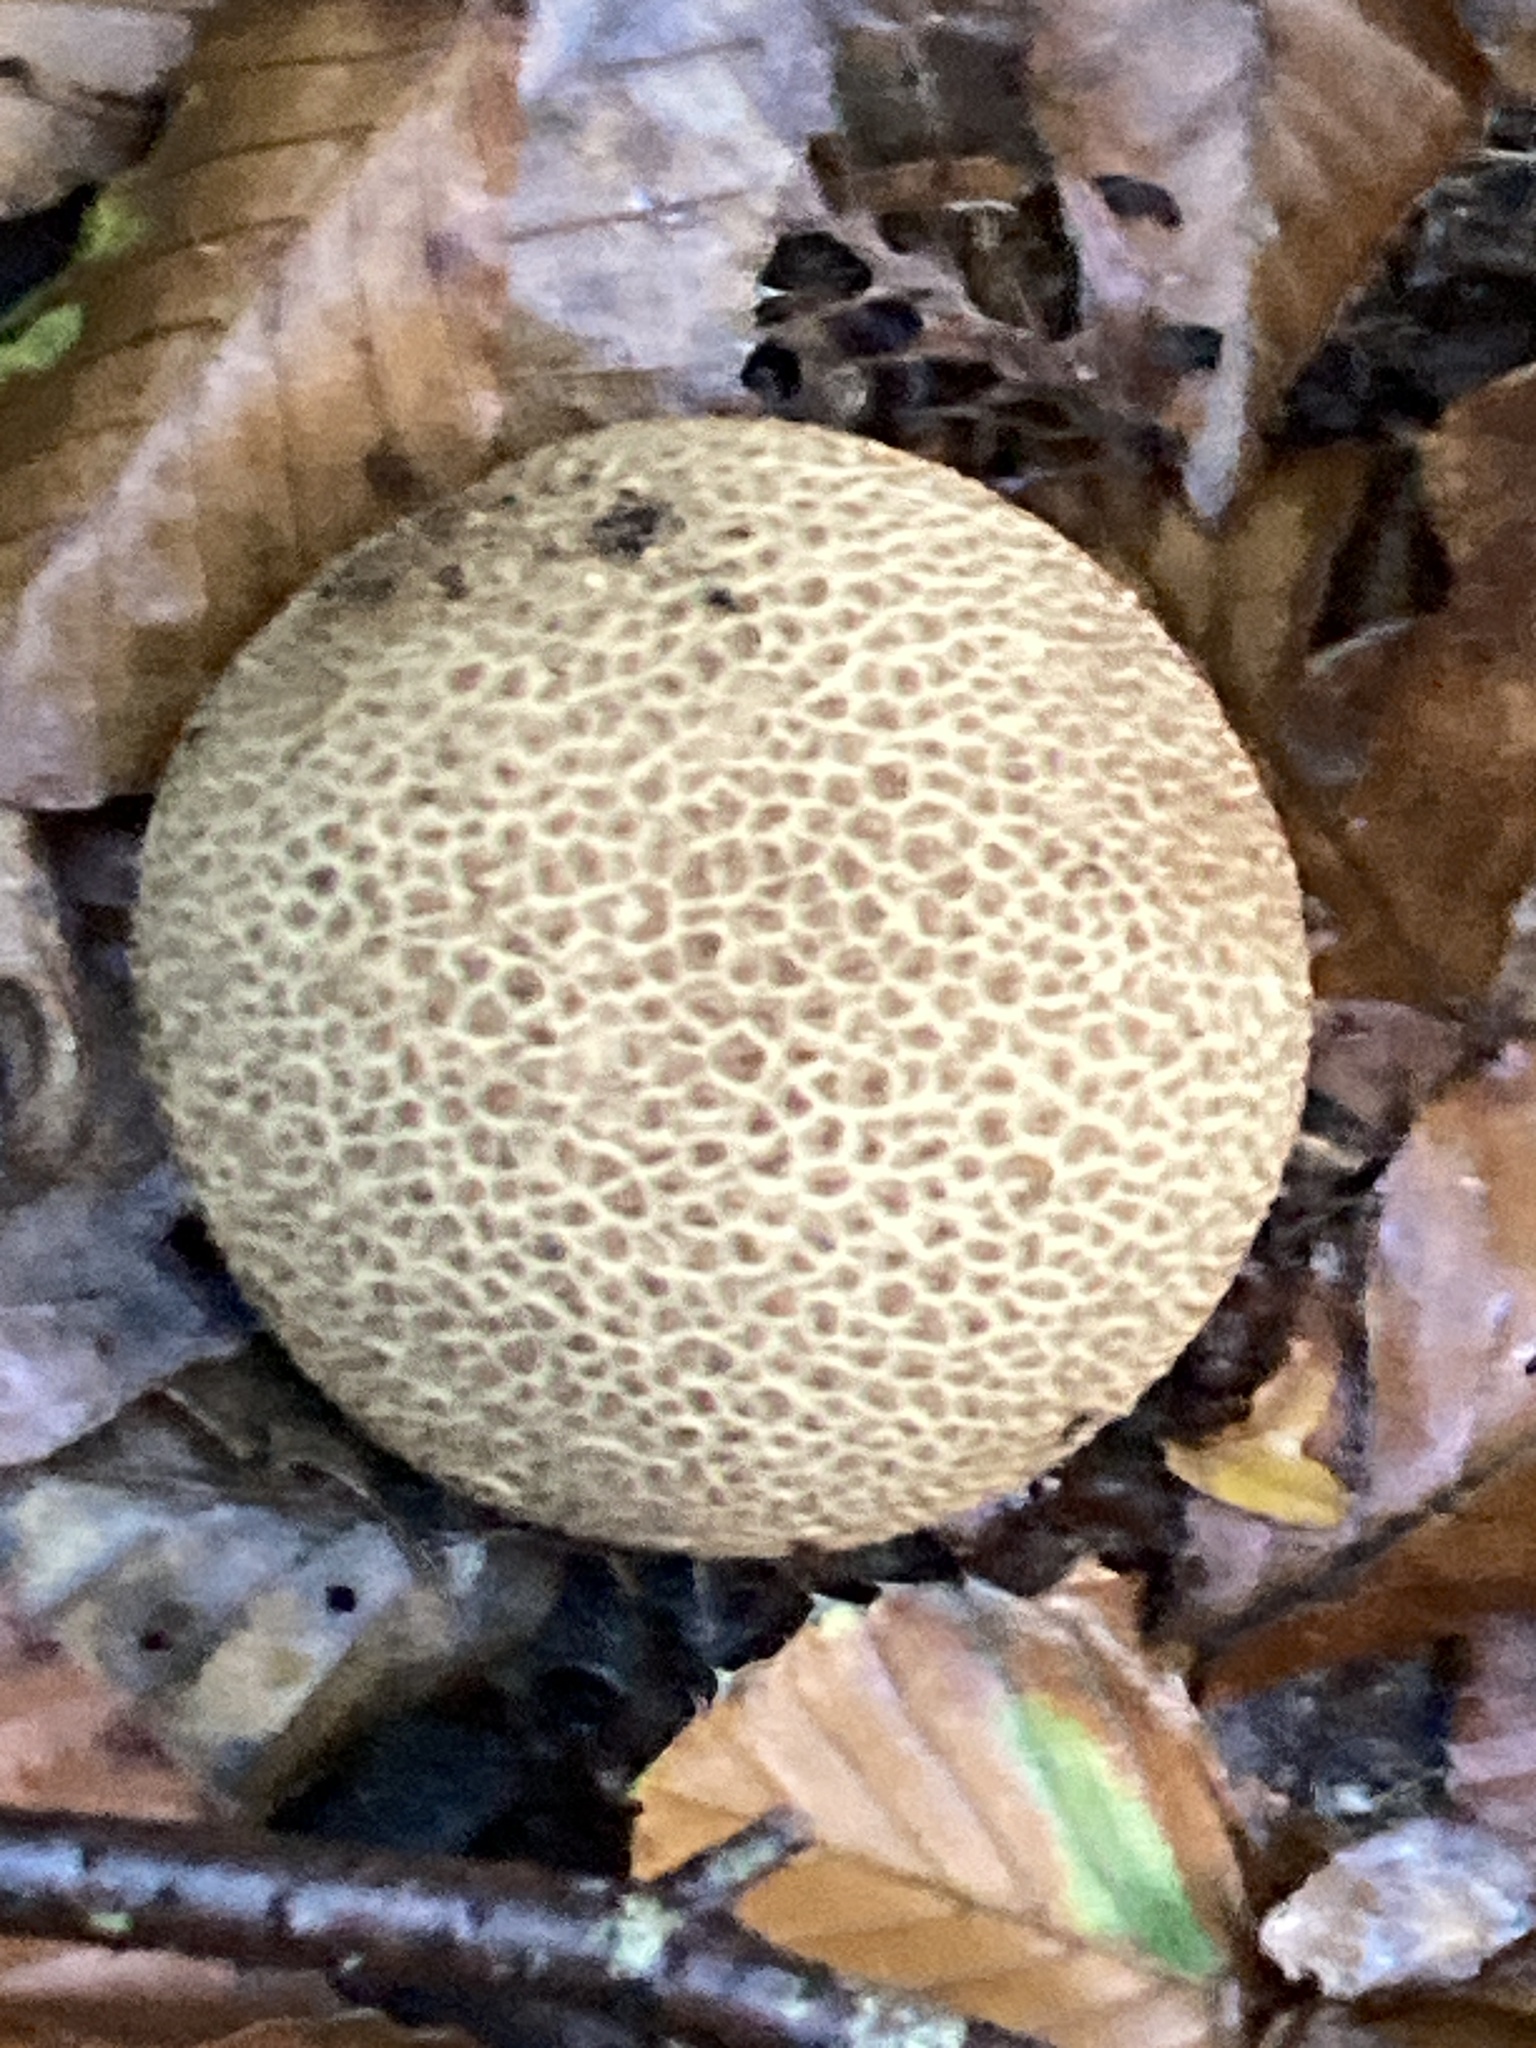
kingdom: Fungi
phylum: Basidiomycota
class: Agaricomycetes
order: Boletales
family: Sclerodermataceae
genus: Scleroderma
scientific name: Scleroderma citrinum
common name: Common earthball
